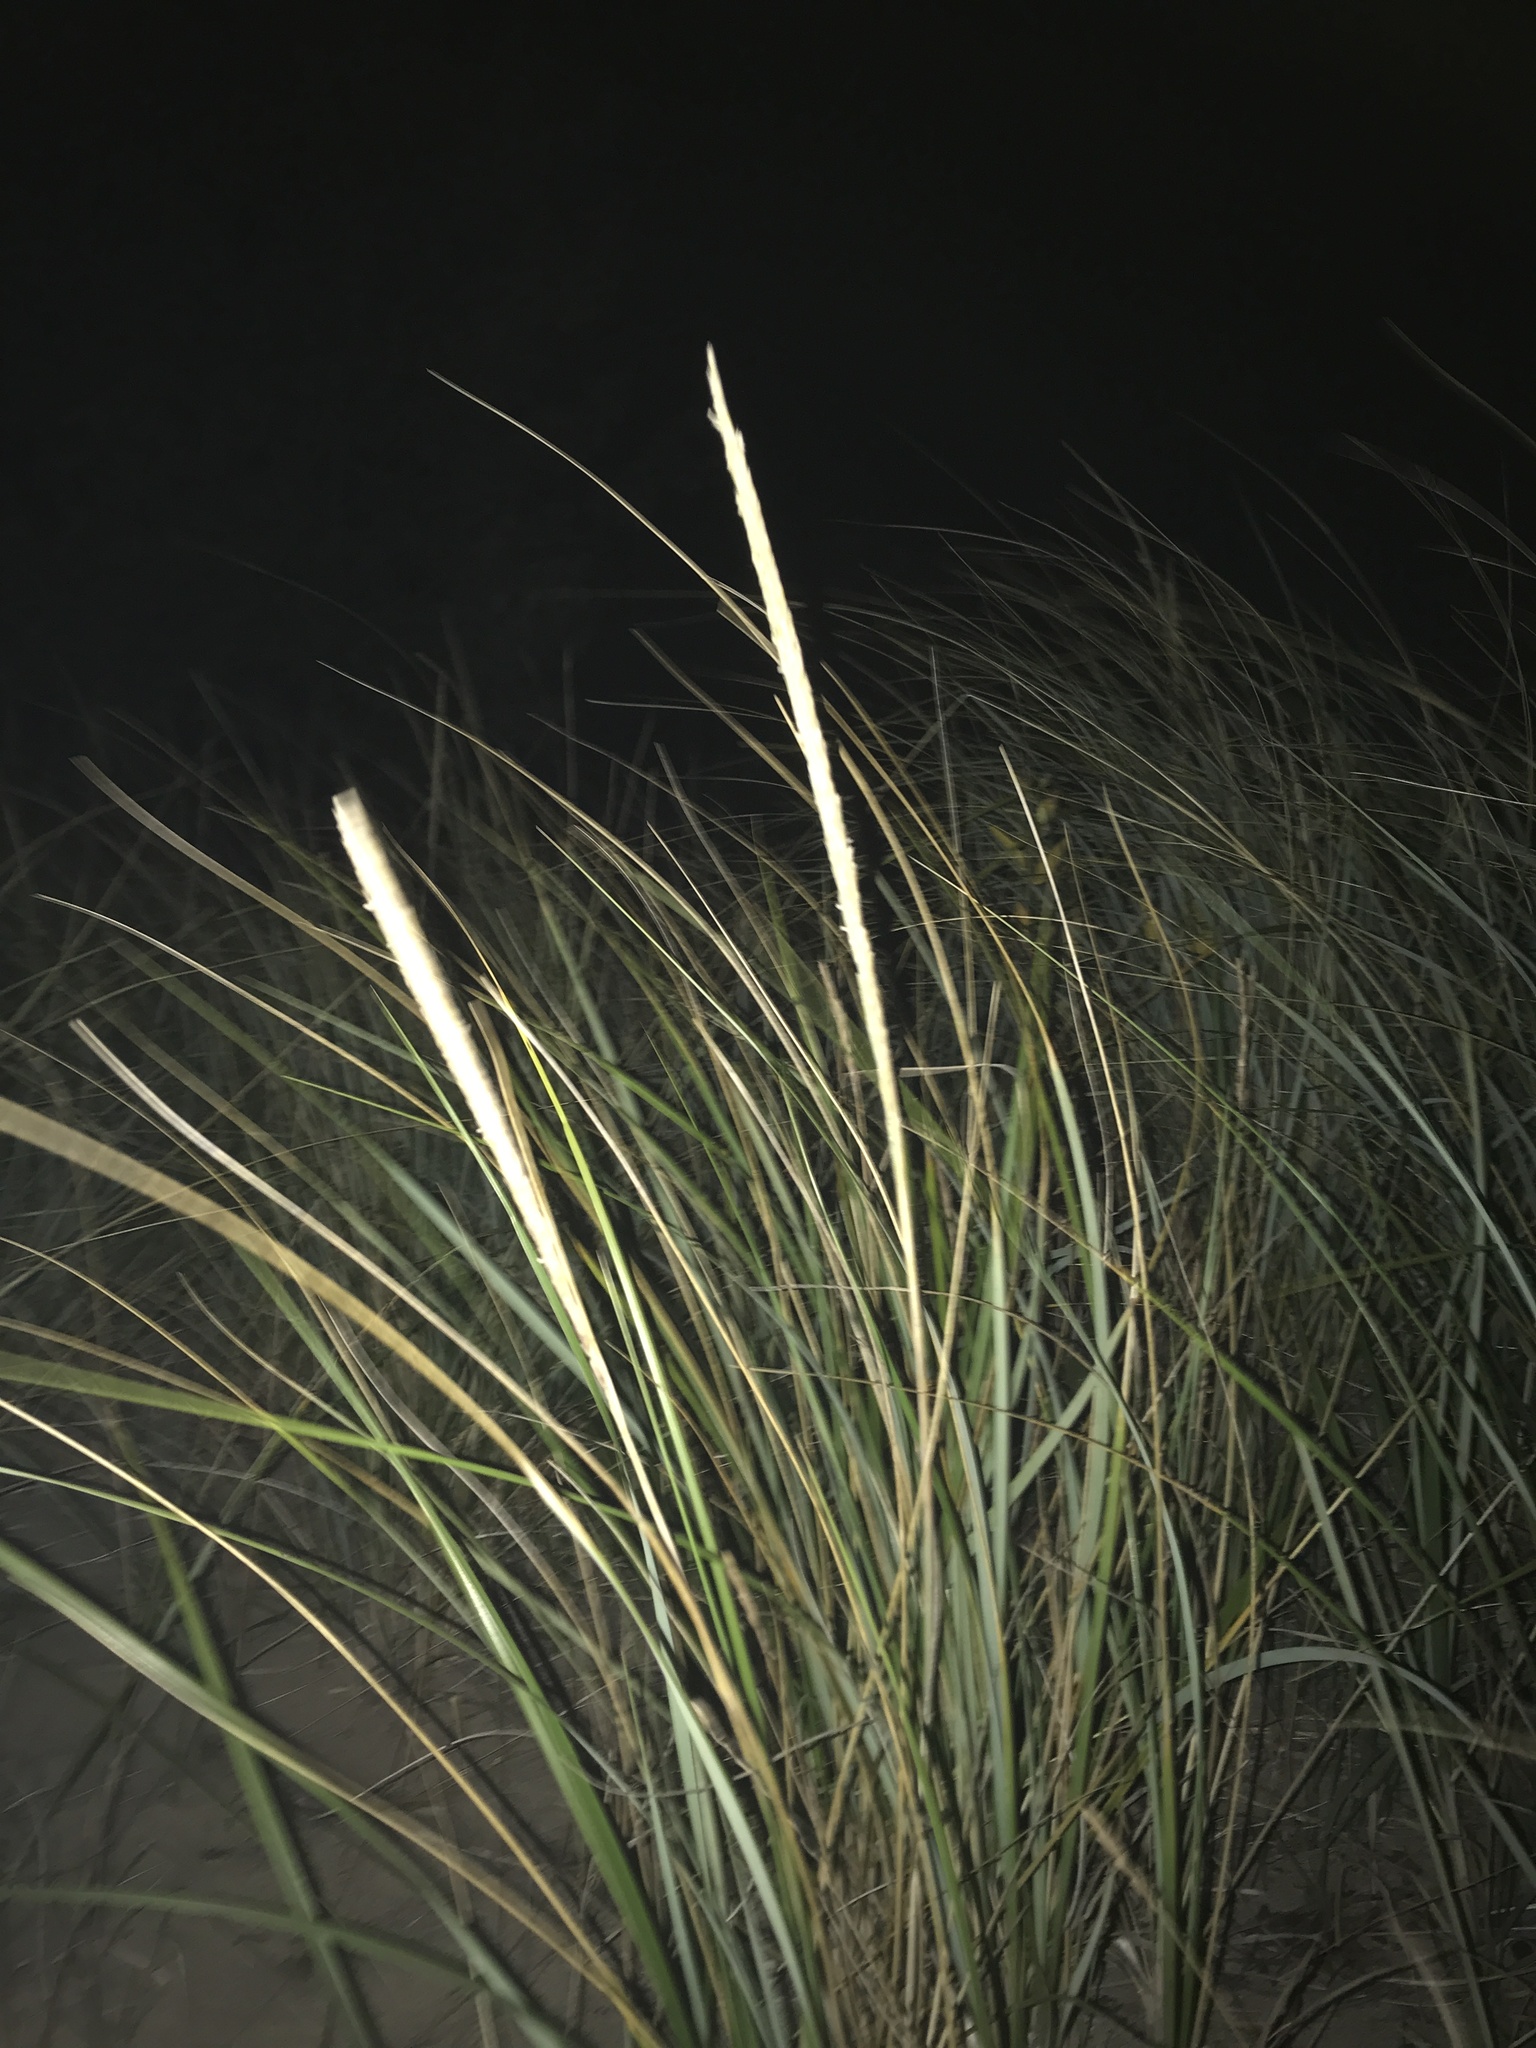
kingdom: Plantae
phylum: Tracheophyta
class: Liliopsida
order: Poales
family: Poaceae
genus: Calamagrostis
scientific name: Calamagrostis breviligulata
